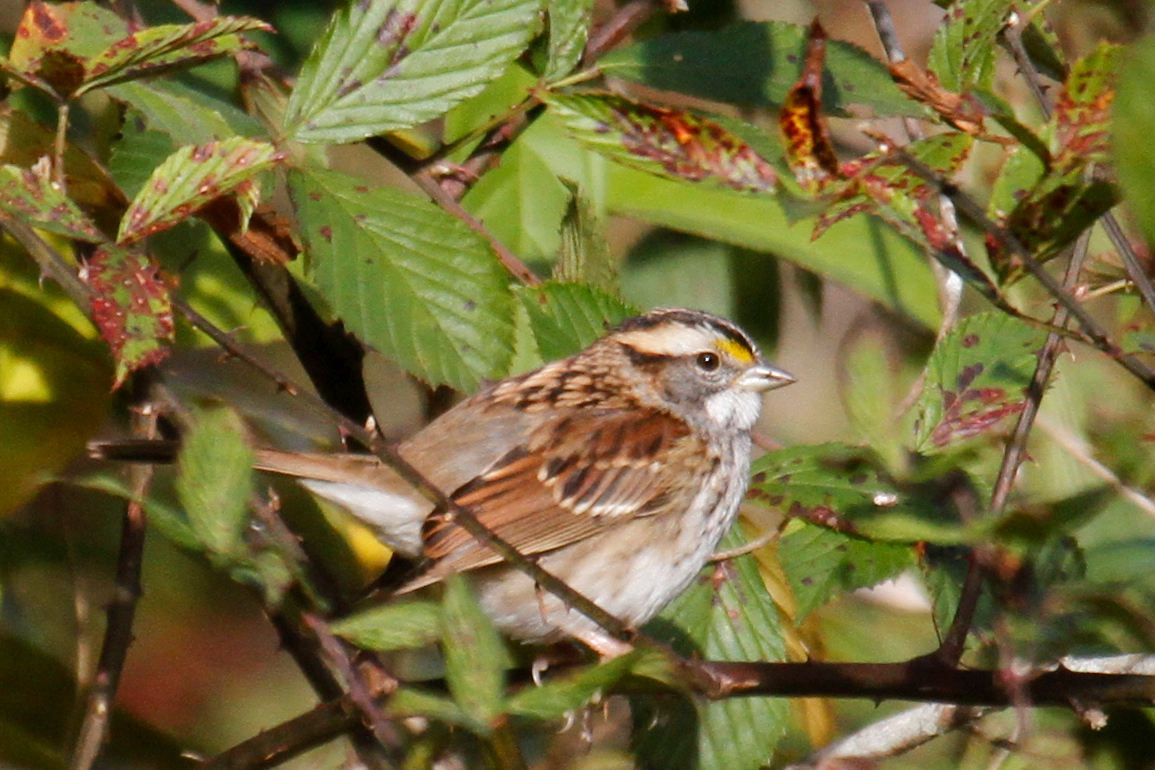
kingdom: Animalia
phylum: Chordata
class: Aves
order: Passeriformes
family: Passerellidae
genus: Zonotrichia
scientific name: Zonotrichia albicollis
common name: White-throated sparrow
